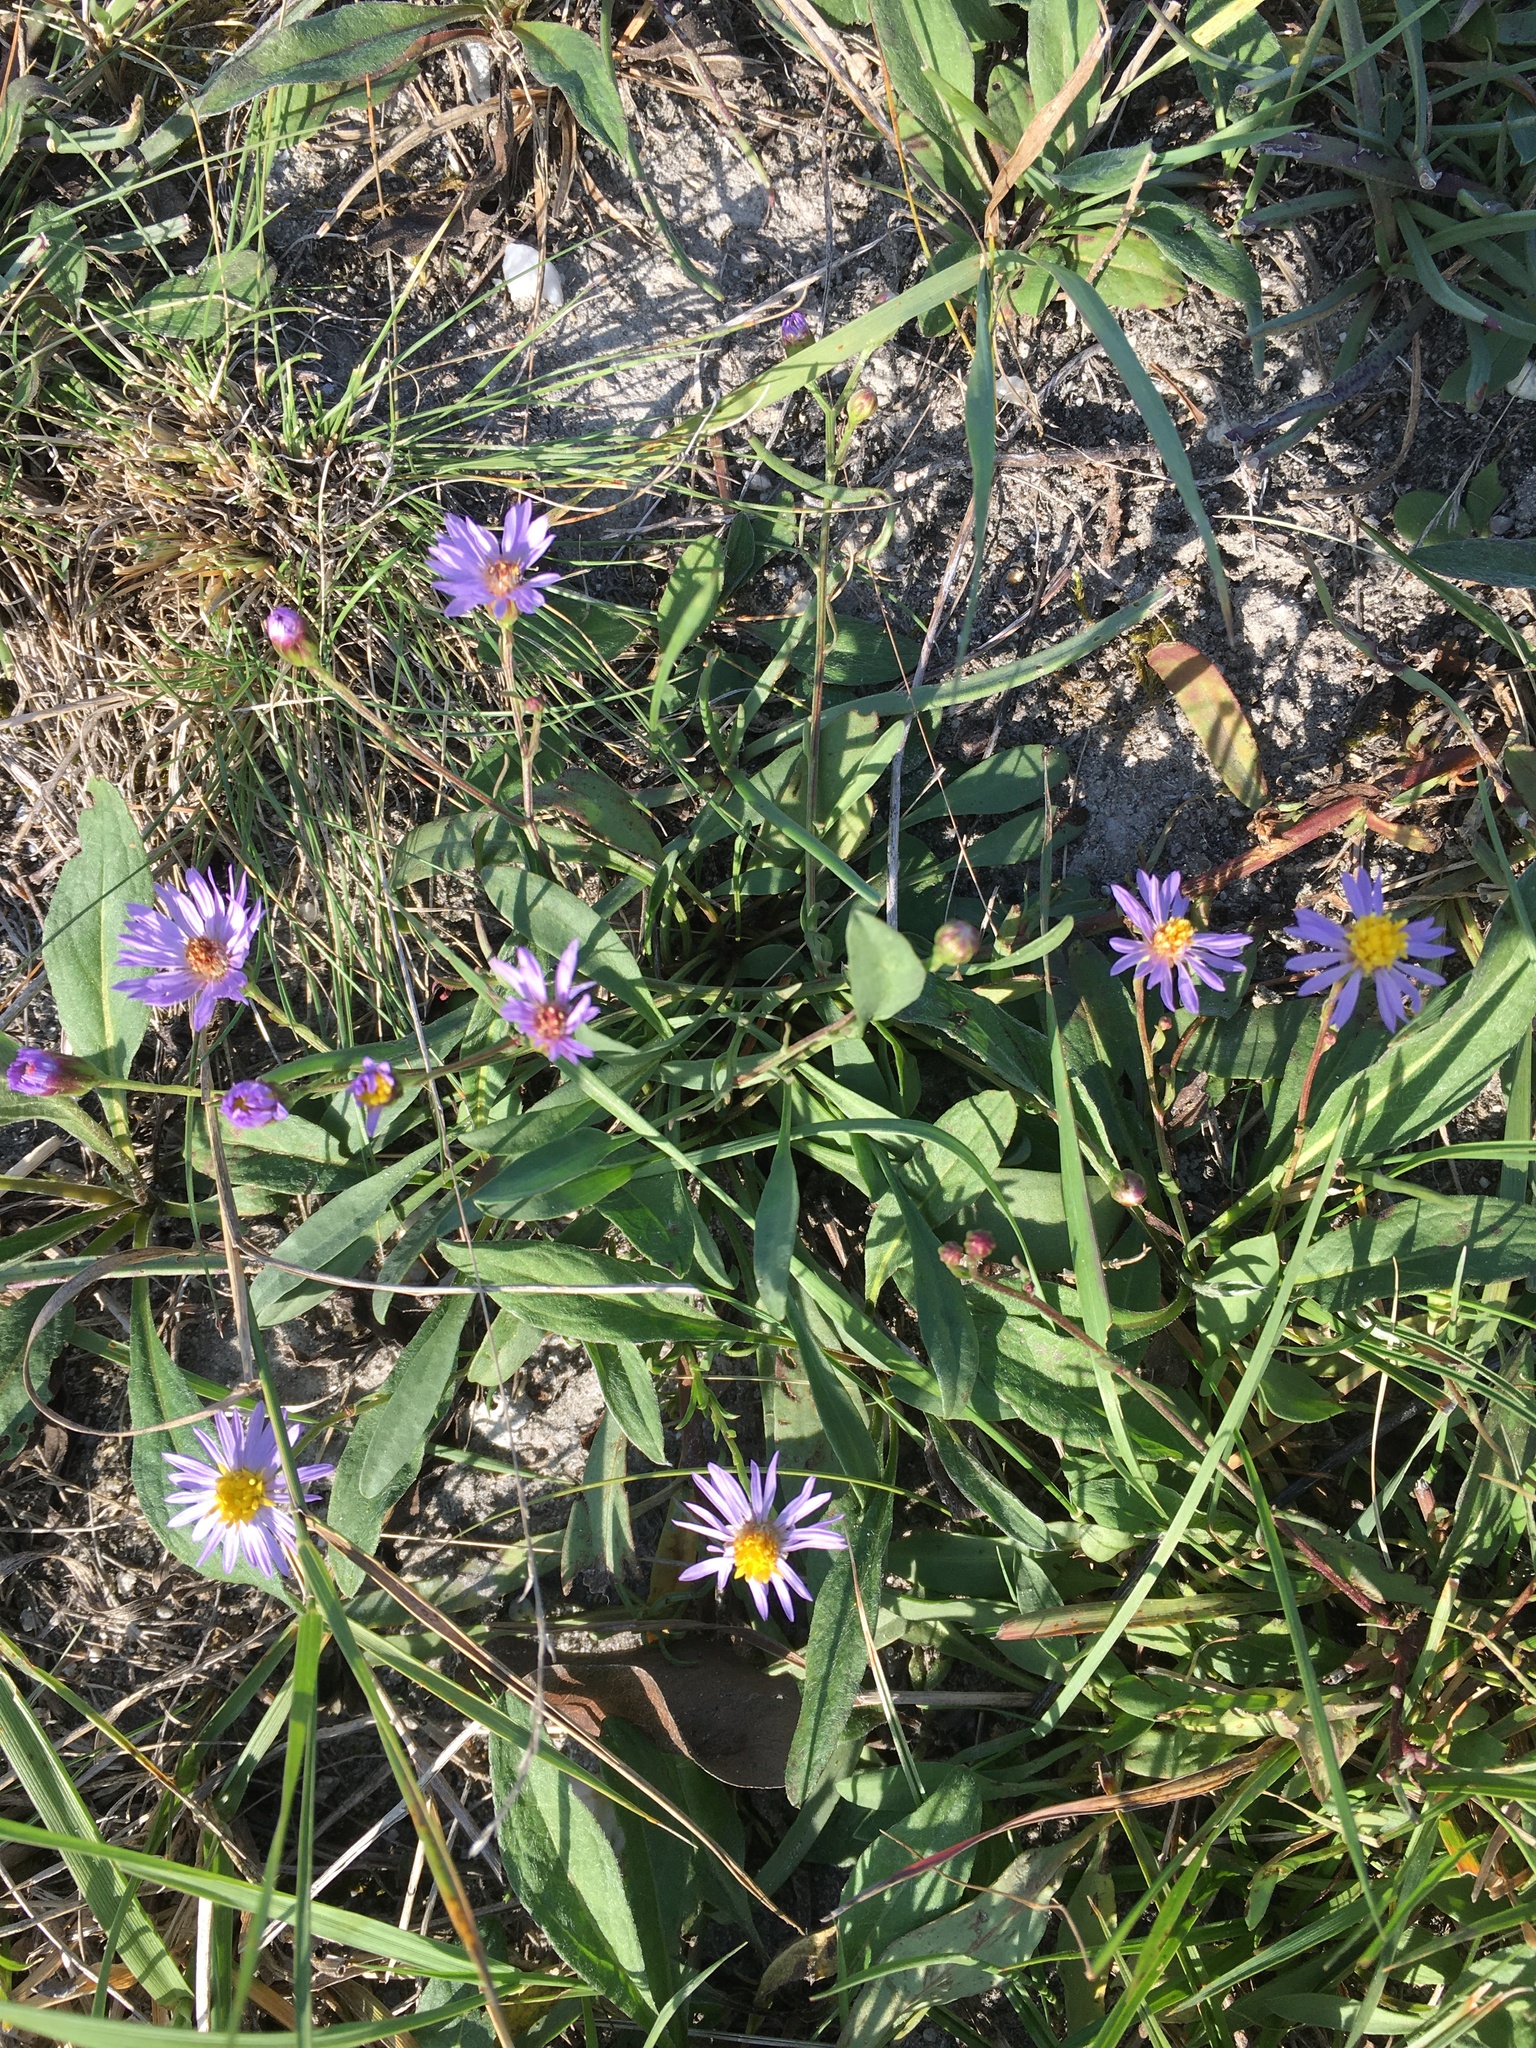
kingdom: Plantae
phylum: Tracheophyta
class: Magnoliopsida
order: Asterales
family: Asteraceae
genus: Tripolium
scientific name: Tripolium pannonicum
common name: Sea aster
